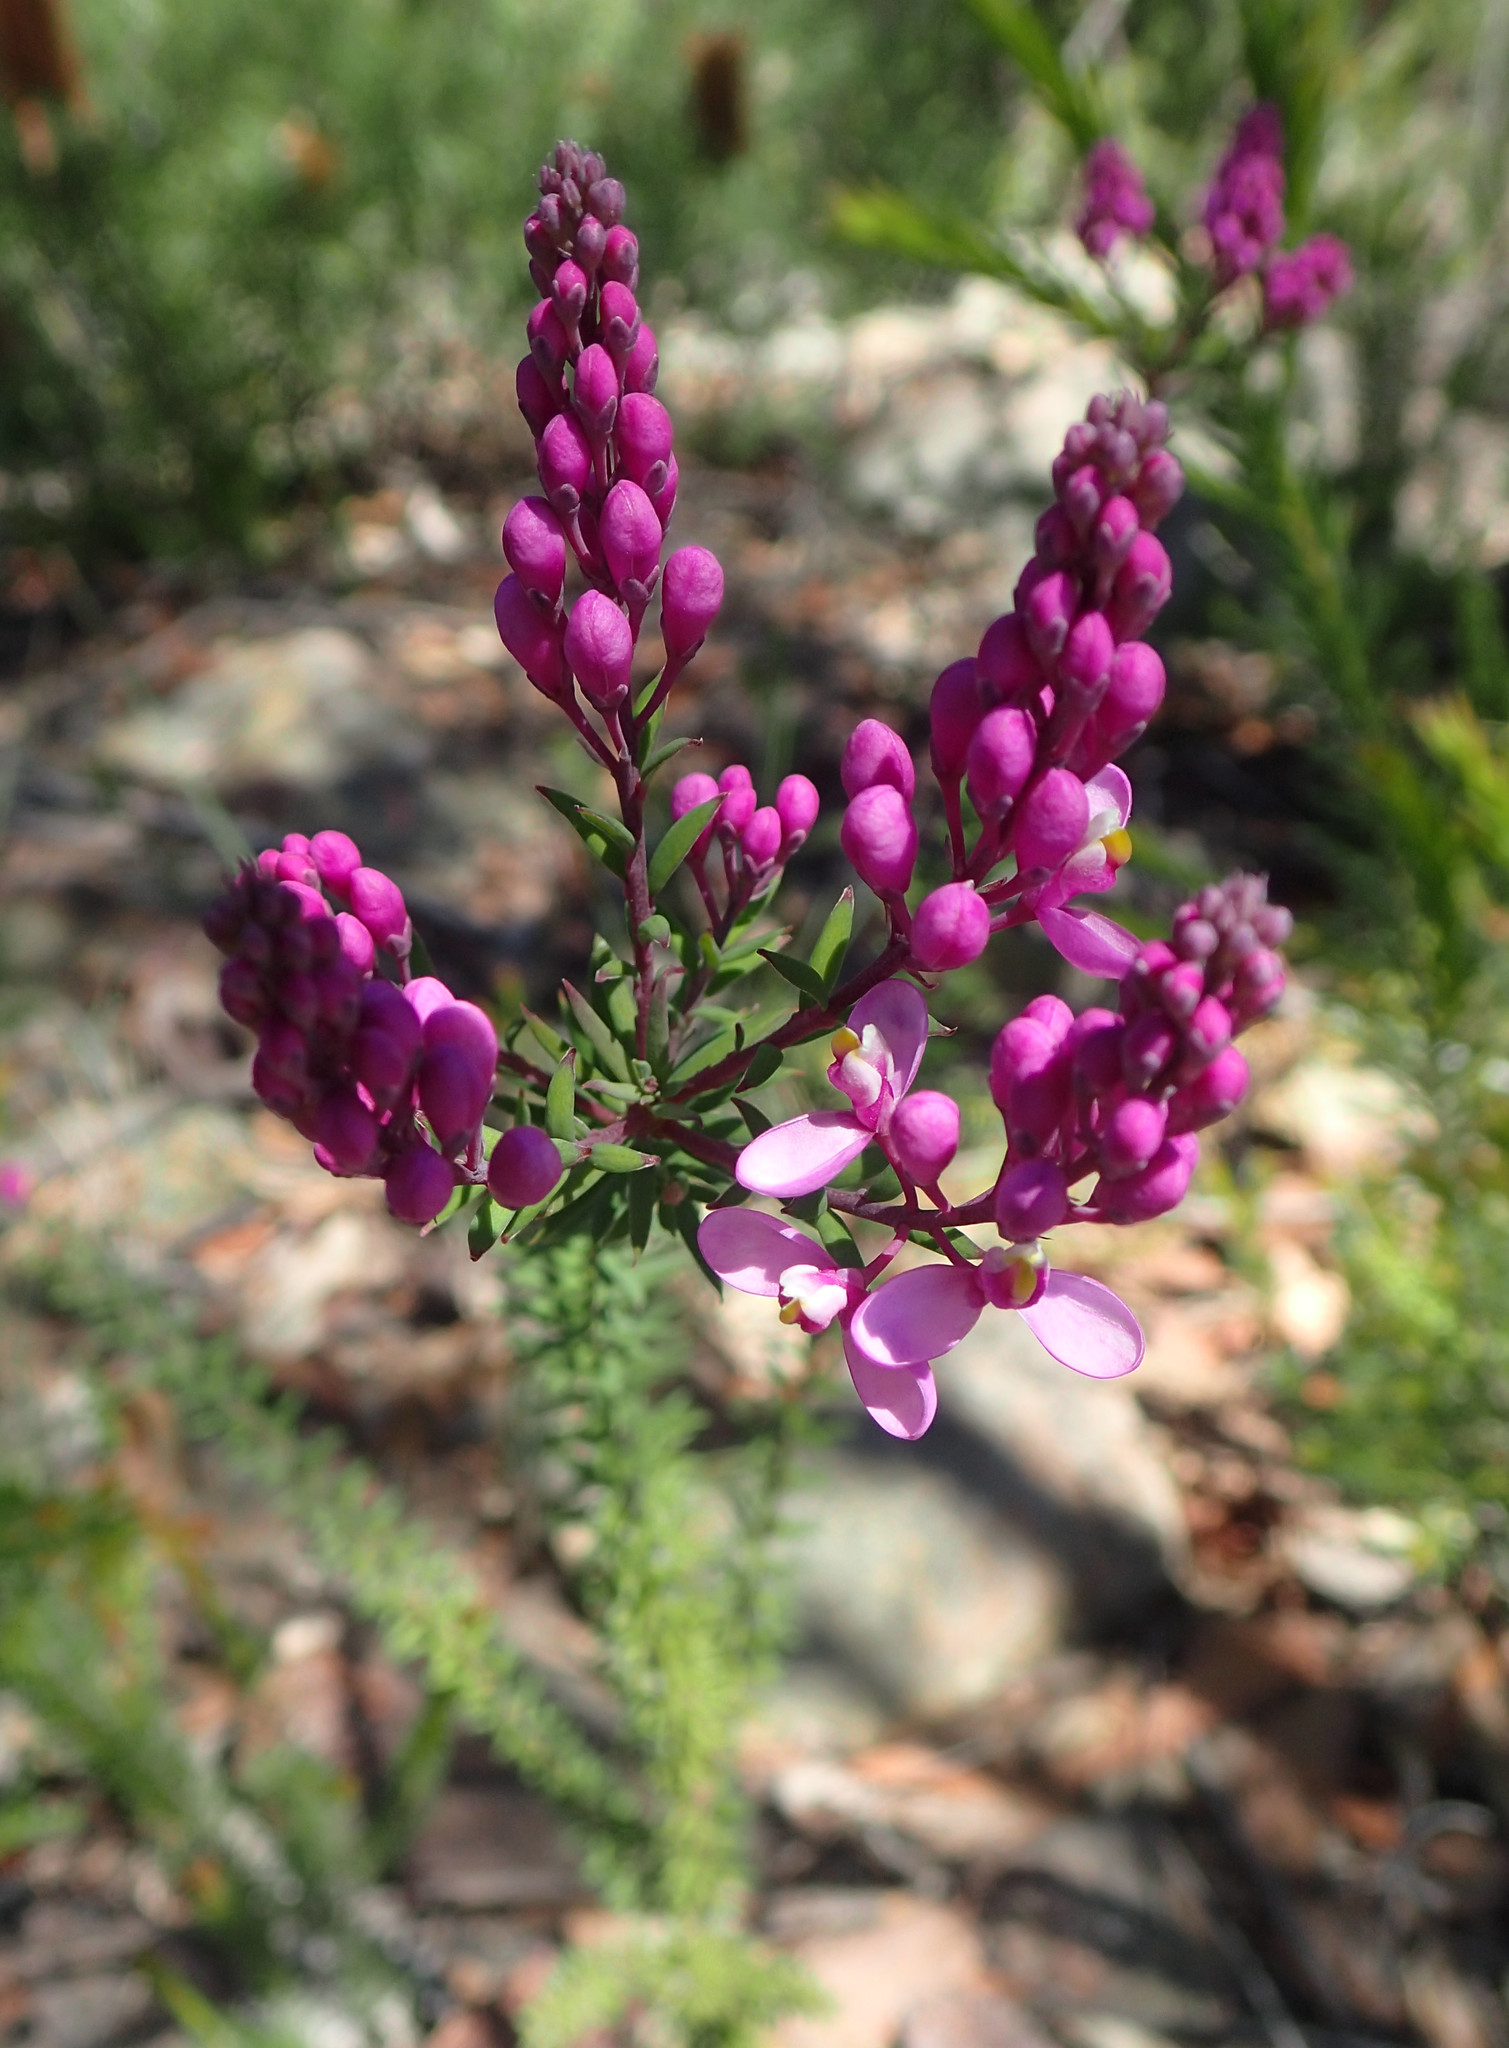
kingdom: Plantae
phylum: Tracheophyta
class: Magnoliopsida
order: Fabales
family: Polygalaceae
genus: Comesperma
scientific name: Comesperma ericinum
